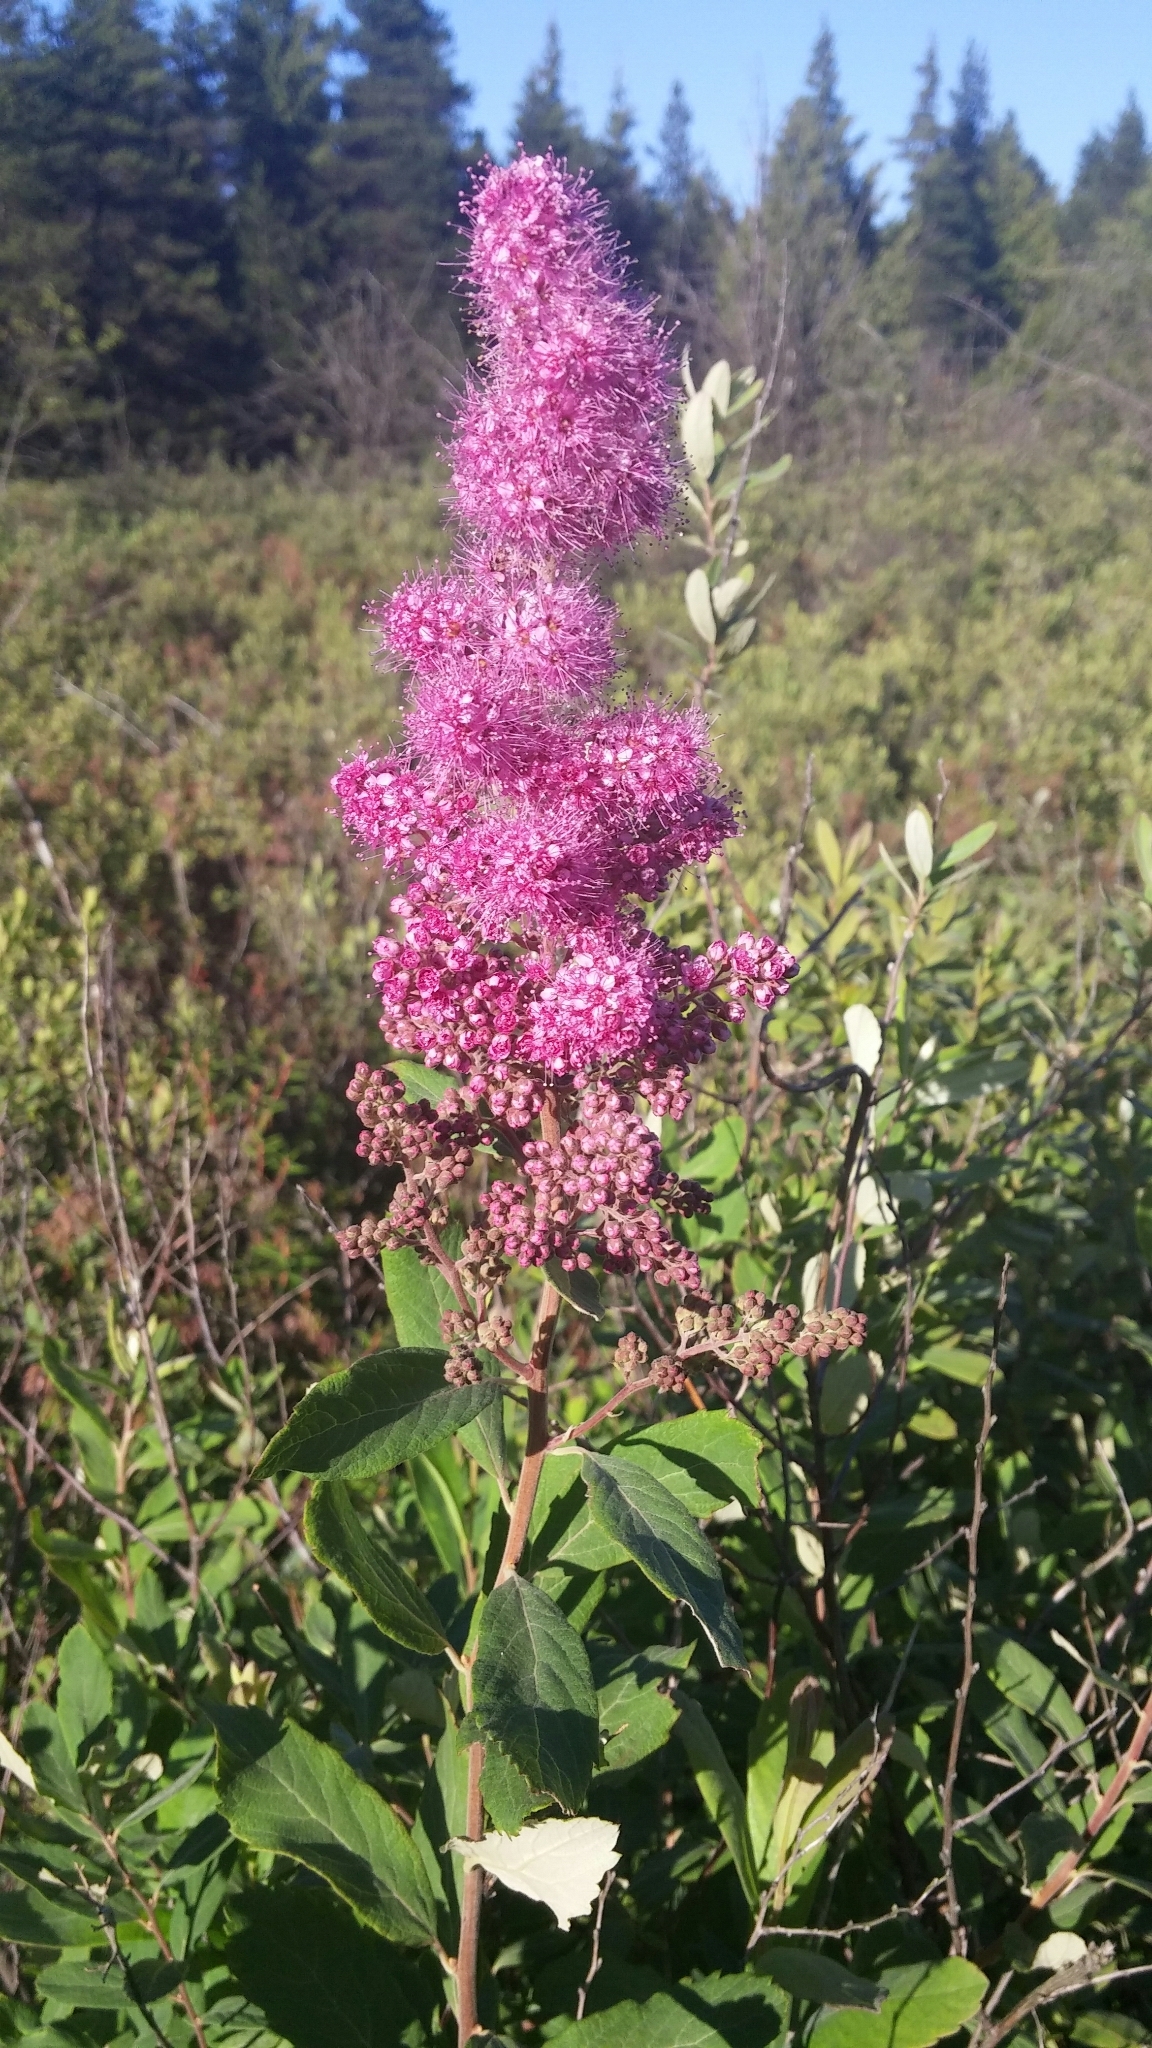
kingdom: Plantae
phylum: Tracheophyta
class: Magnoliopsida
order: Rosales
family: Rosaceae
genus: Spiraea
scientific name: Spiraea douglasii
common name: Steeplebush
